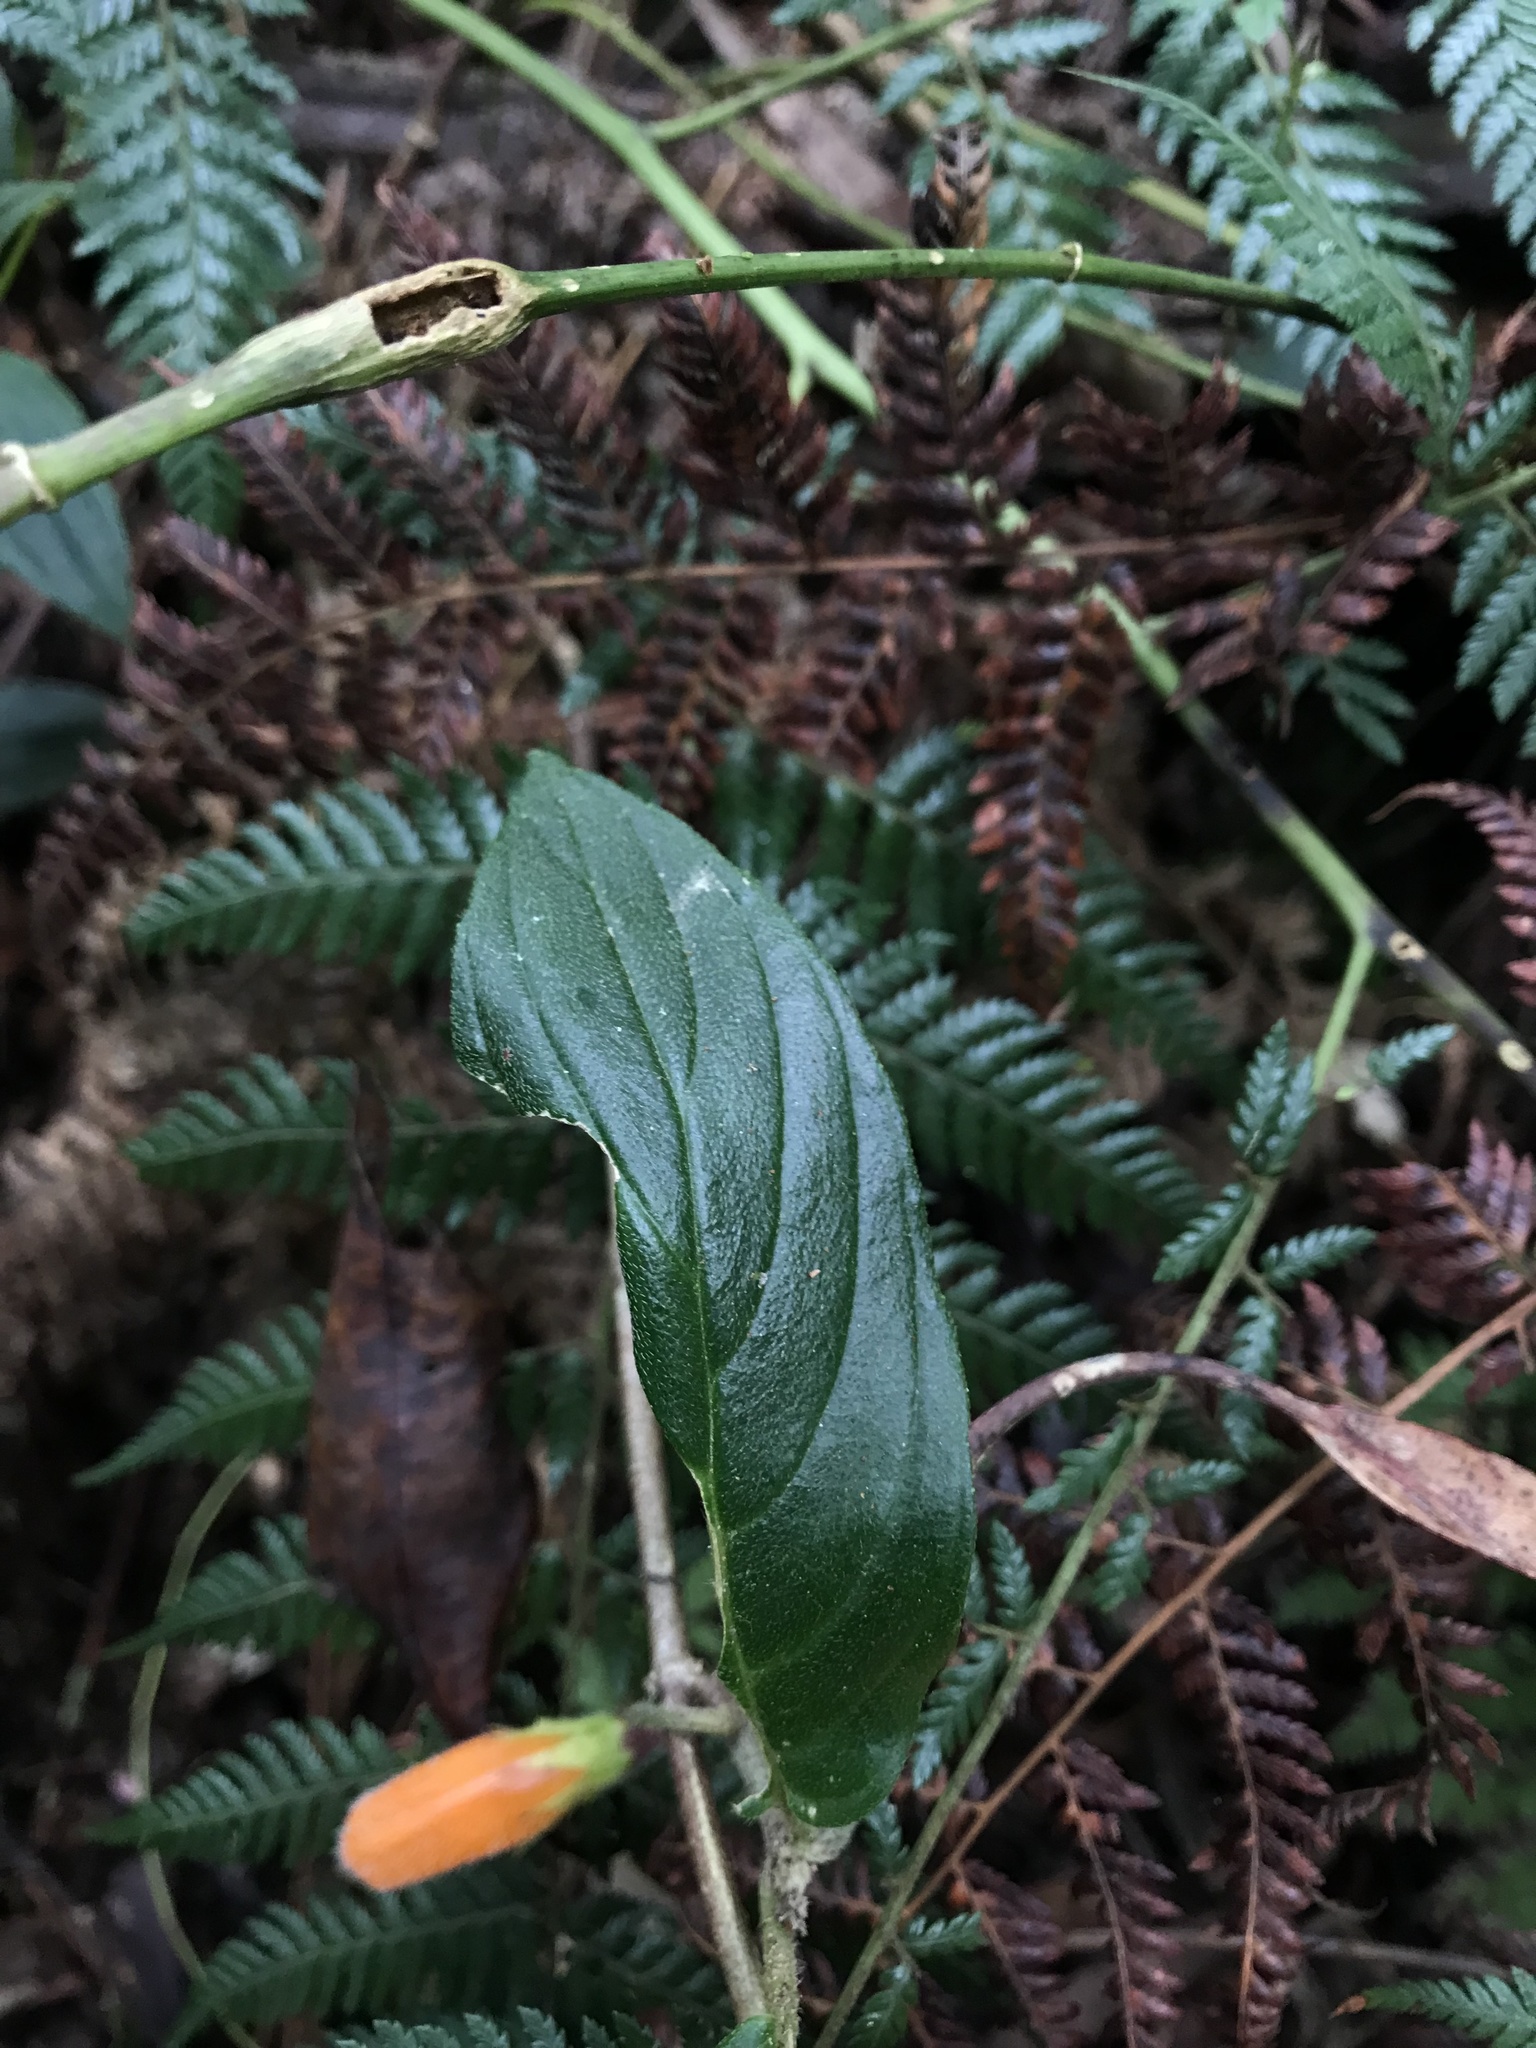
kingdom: Plantae
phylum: Tracheophyta
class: Magnoliopsida
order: Lamiales
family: Gesneriaceae
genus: Columnea
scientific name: Columnea strigosa
